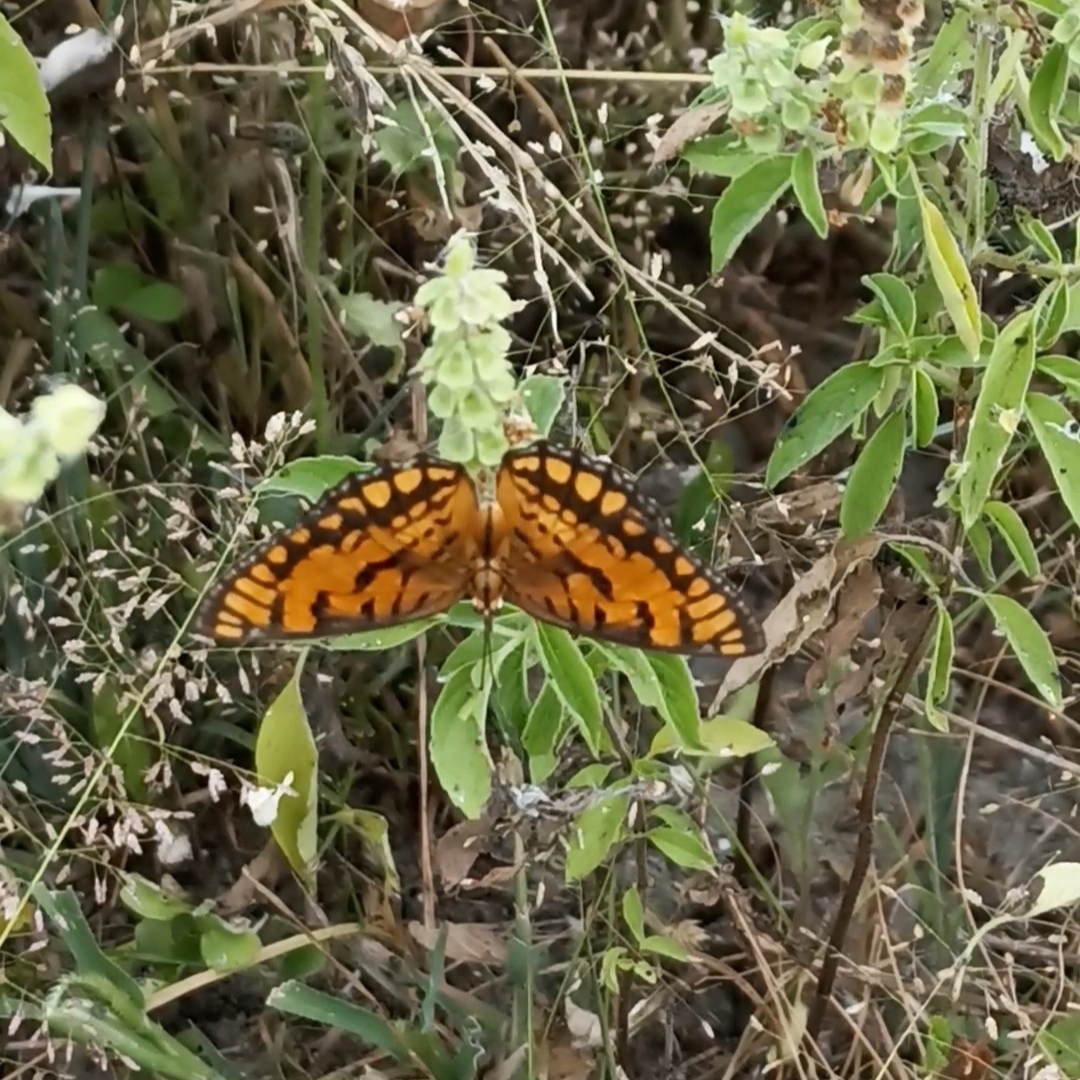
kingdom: Animalia
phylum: Arthropoda
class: Insecta
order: Lepidoptera
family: Nymphalidae
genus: Byblia
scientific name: Byblia ilithyia
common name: Spotted joker
